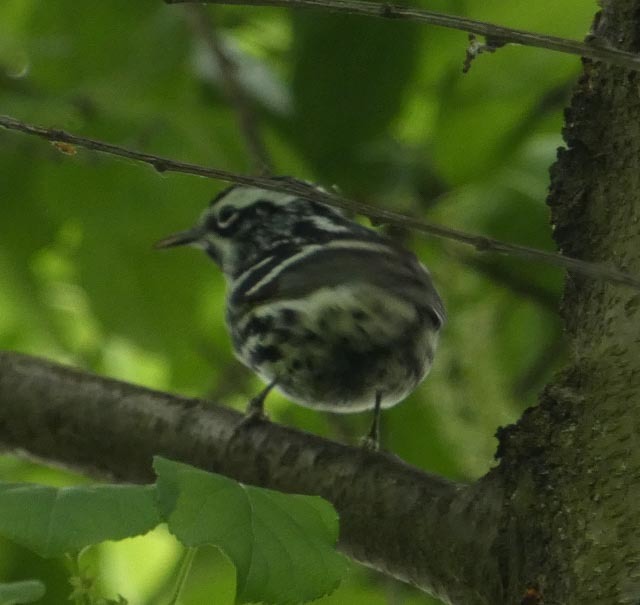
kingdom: Animalia
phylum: Chordata
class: Aves
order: Passeriformes
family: Parulidae
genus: Mniotilta
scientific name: Mniotilta varia
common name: Black-and-white warbler
